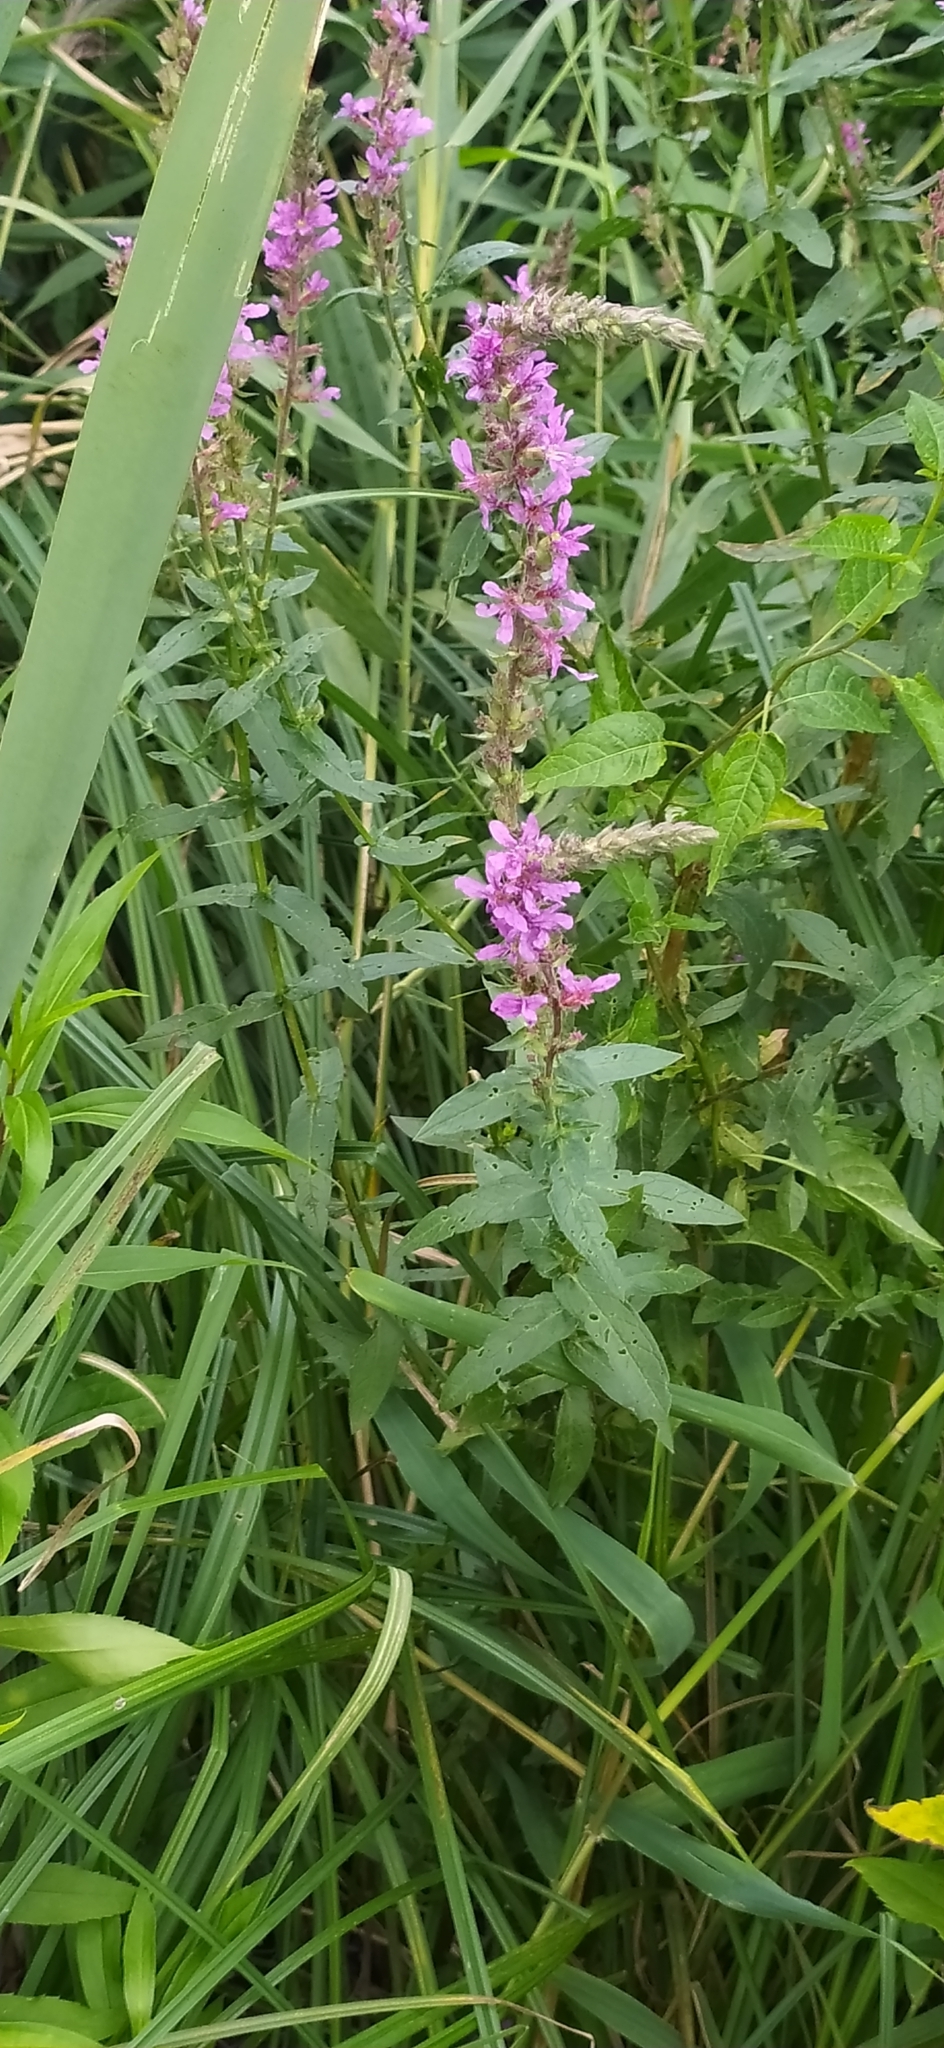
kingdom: Plantae
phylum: Tracheophyta
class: Magnoliopsida
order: Myrtales
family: Lythraceae
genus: Lythrum
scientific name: Lythrum salicaria
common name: Purple loosestrife
